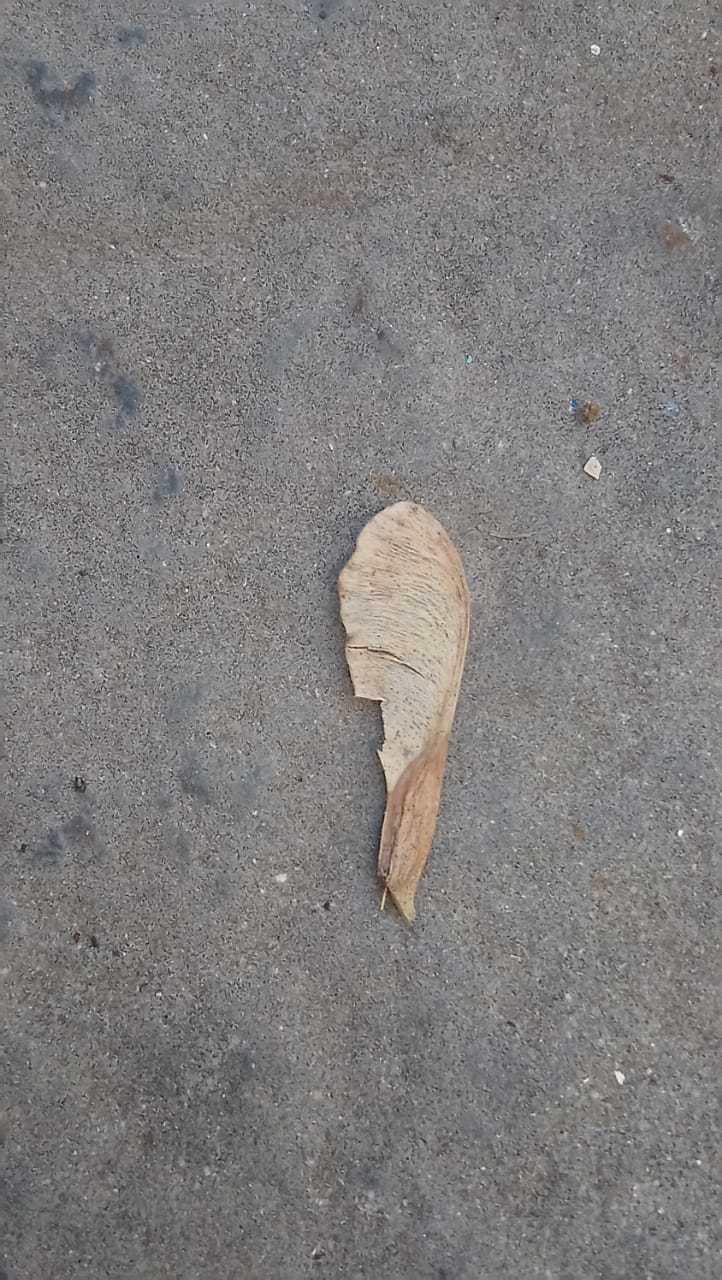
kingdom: Plantae
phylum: Tracheophyta
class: Magnoliopsida
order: Sapindales
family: Sapindaceae
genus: Acer
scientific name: Acer negundo
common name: Ashleaf maple
